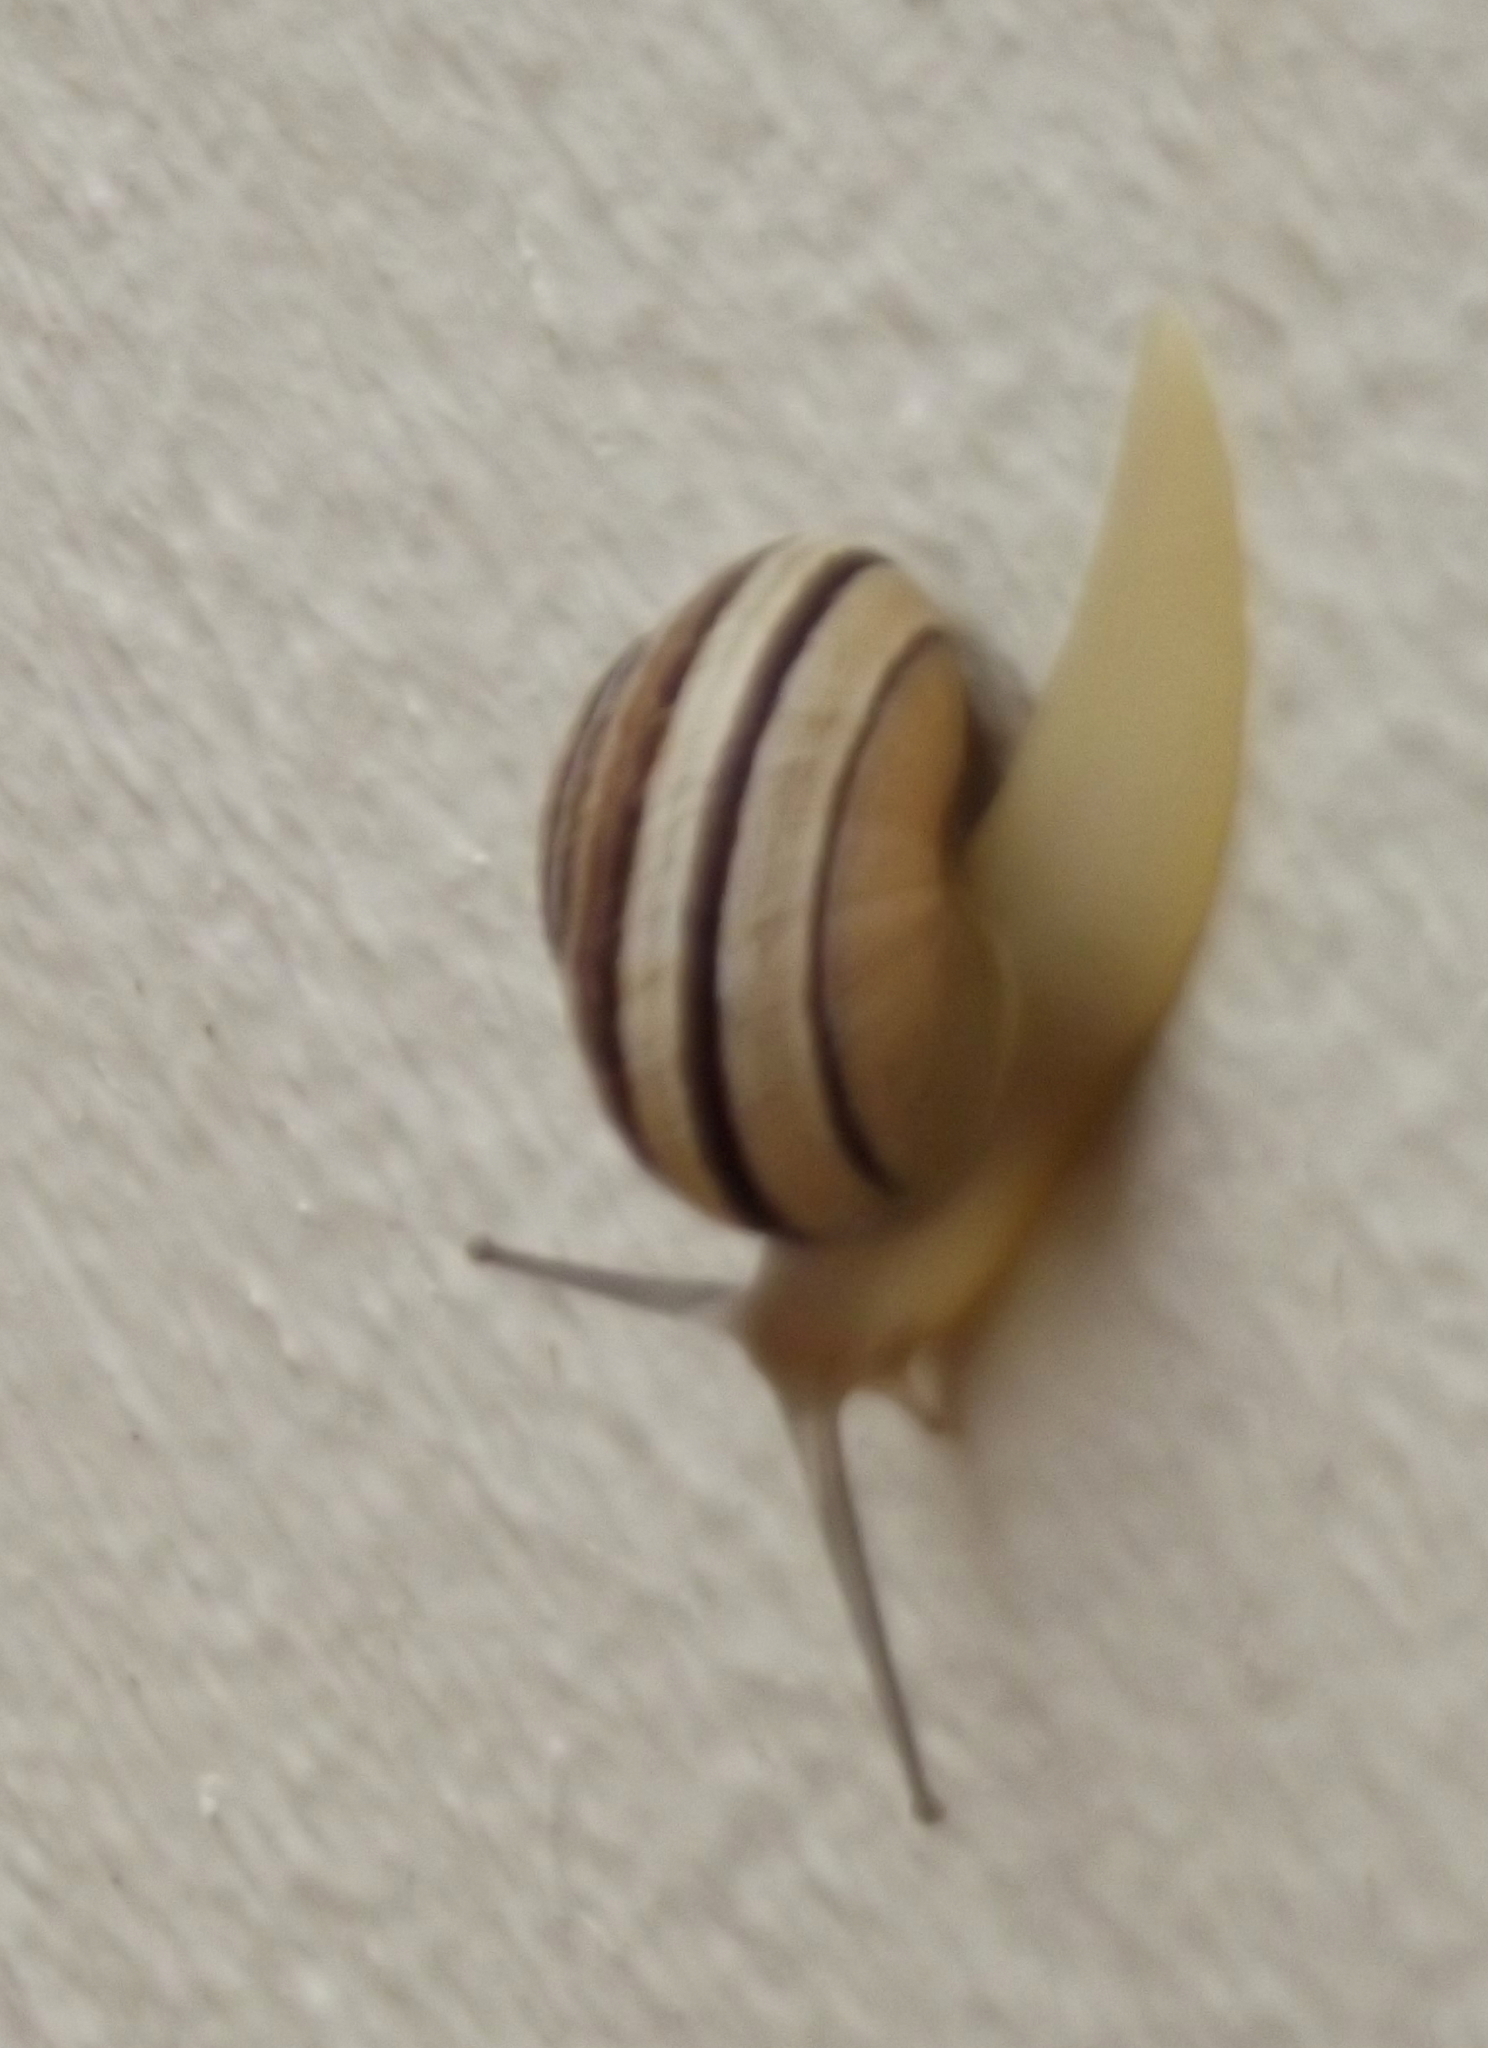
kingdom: Animalia
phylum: Mollusca
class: Gastropoda
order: Stylommatophora
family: Helicidae
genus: Eobania
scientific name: Eobania vermiculata
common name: Chocolateband snail
